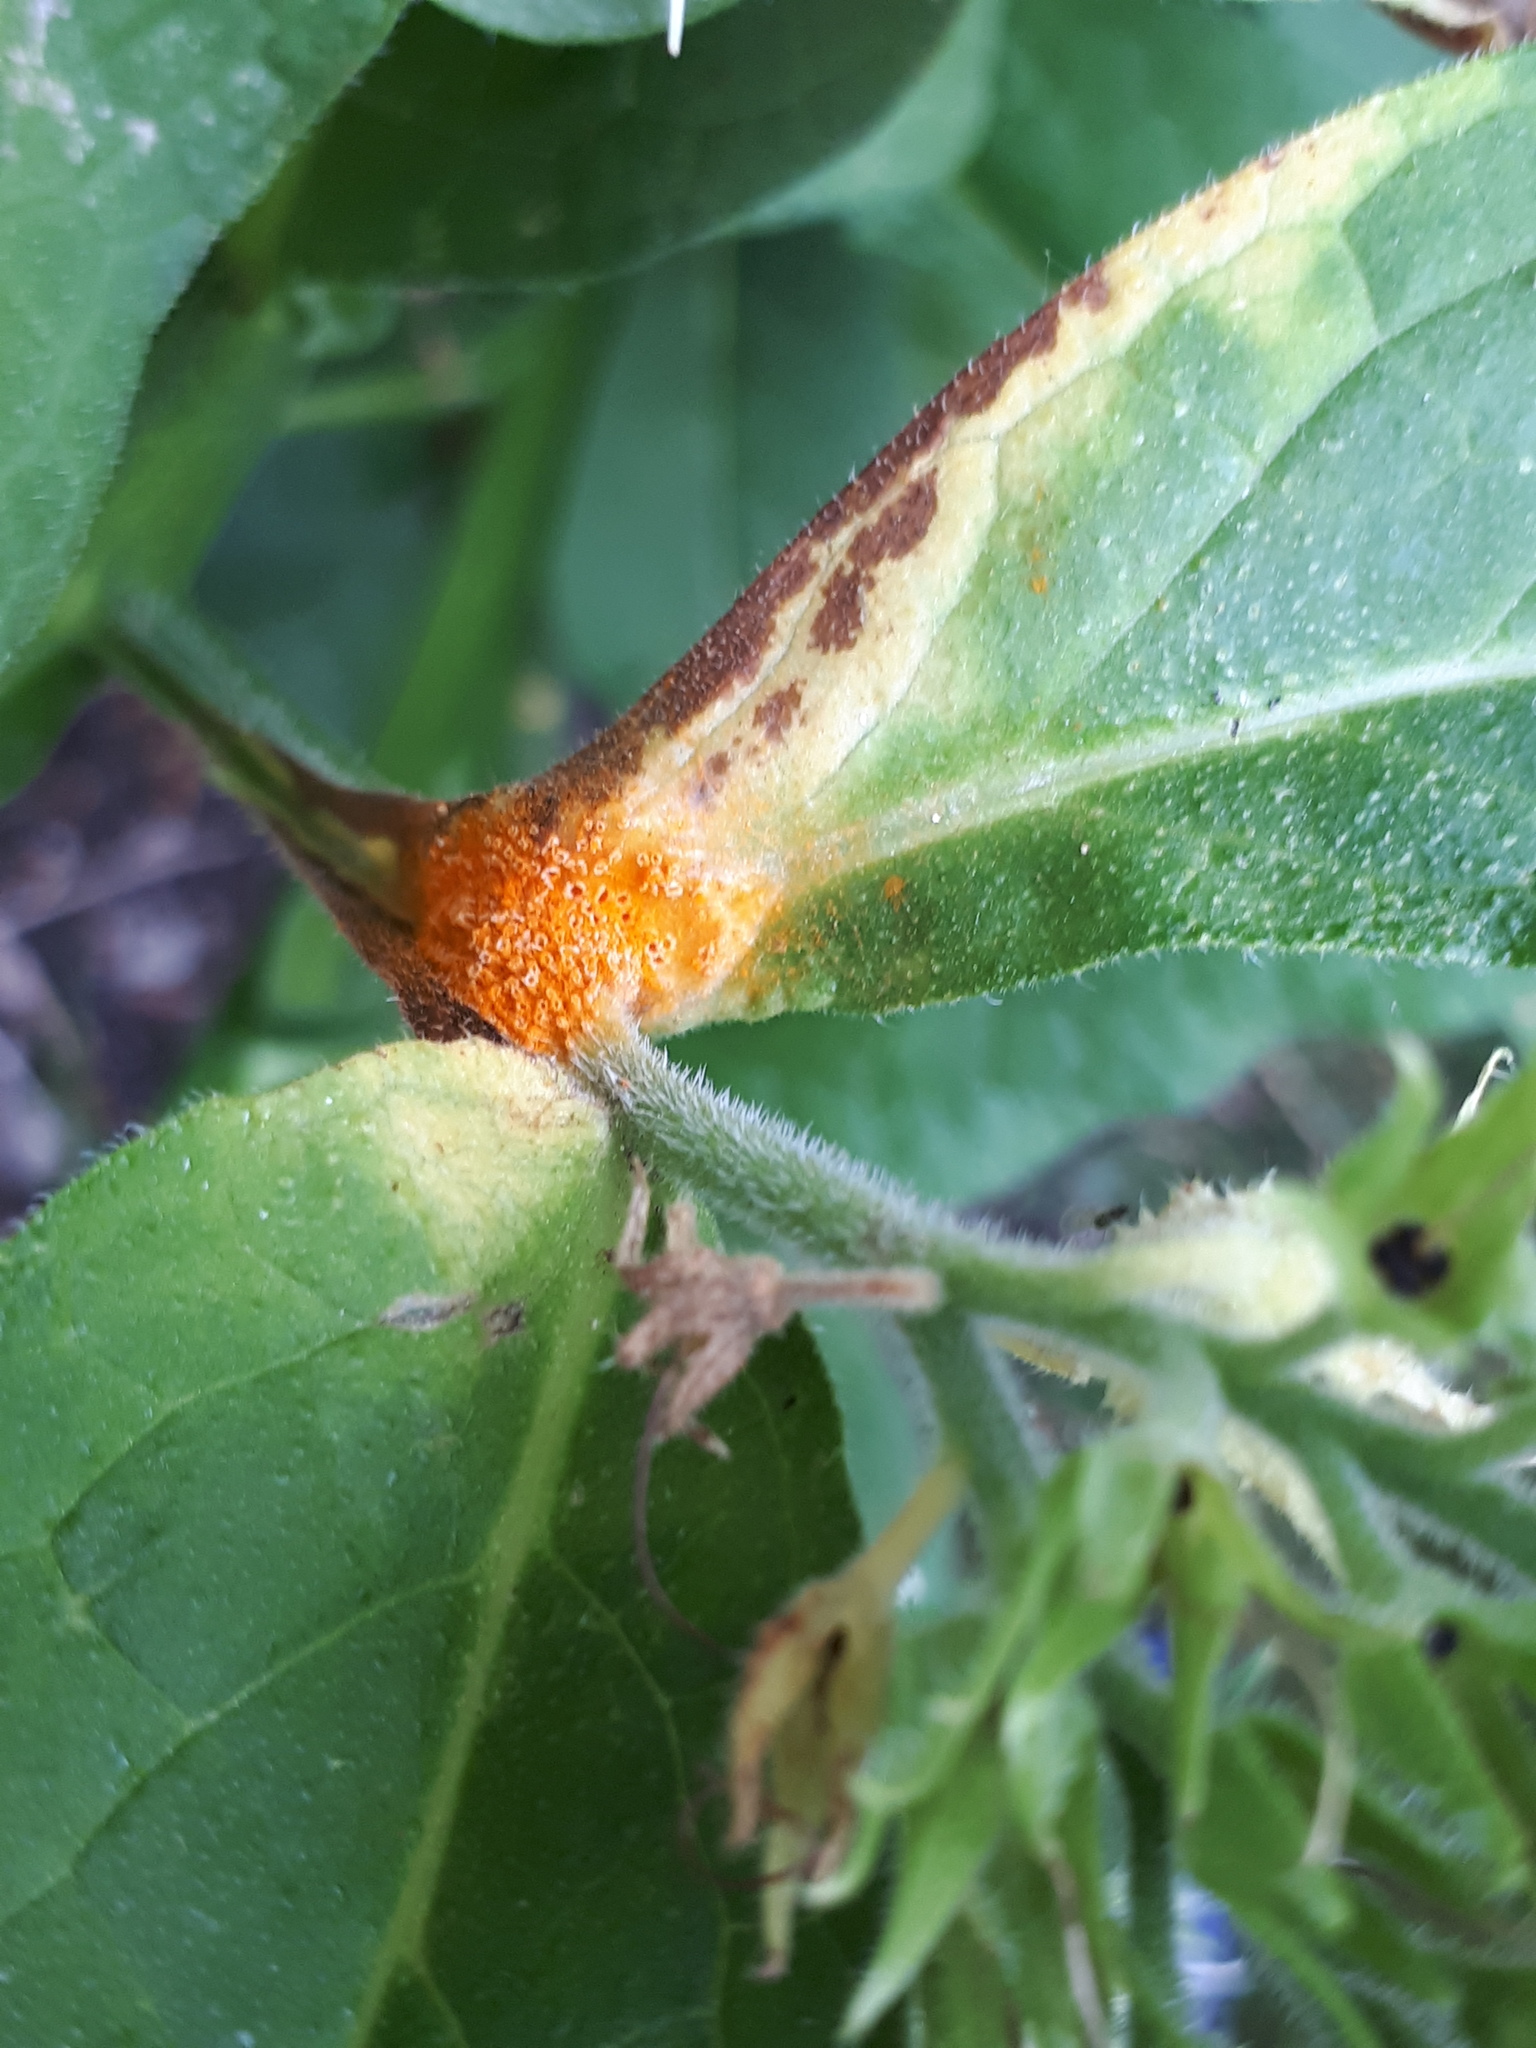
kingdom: Fungi
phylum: Basidiomycota
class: Pucciniomycetes
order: Pucciniales
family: Pucciniaceae
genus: Puccinia
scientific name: Puccinia recondita
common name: Brown rust of wheat
